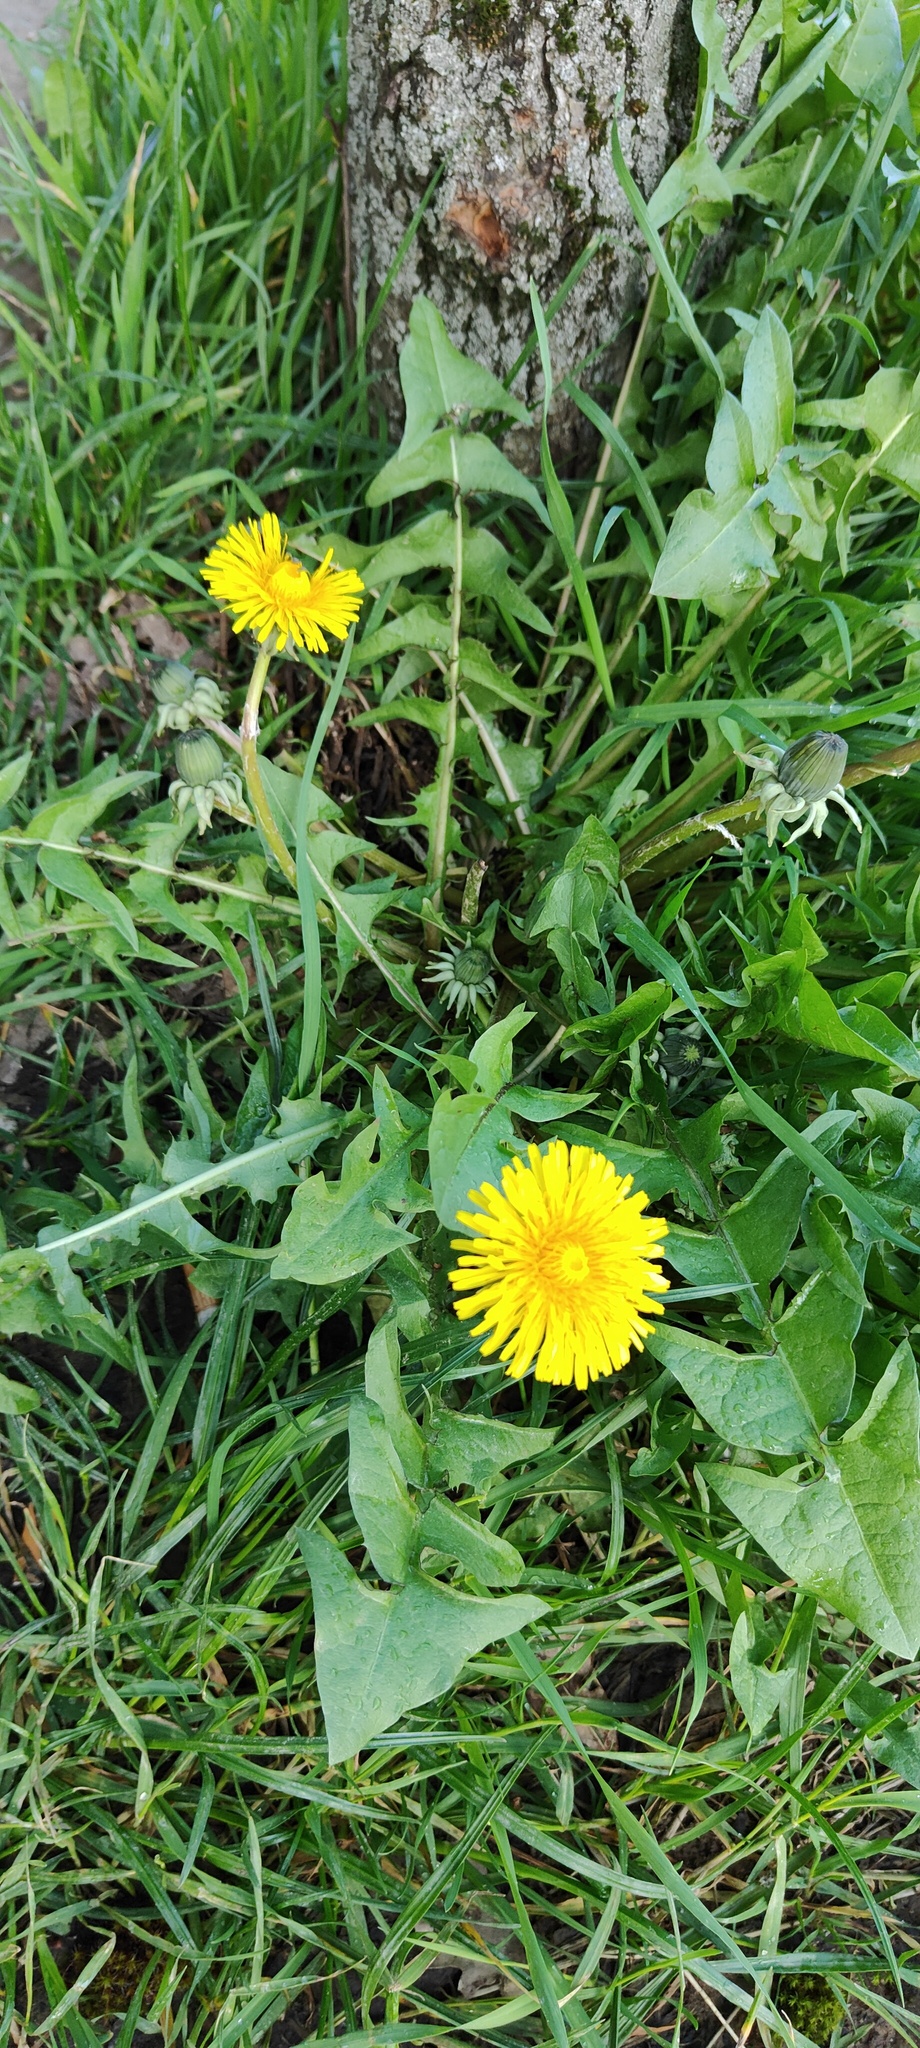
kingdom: Plantae
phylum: Tracheophyta
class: Magnoliopsida
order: Asterales
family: Asteraceae
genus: Taraxacum
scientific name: Taraxacum officinale
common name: Common dandelion
